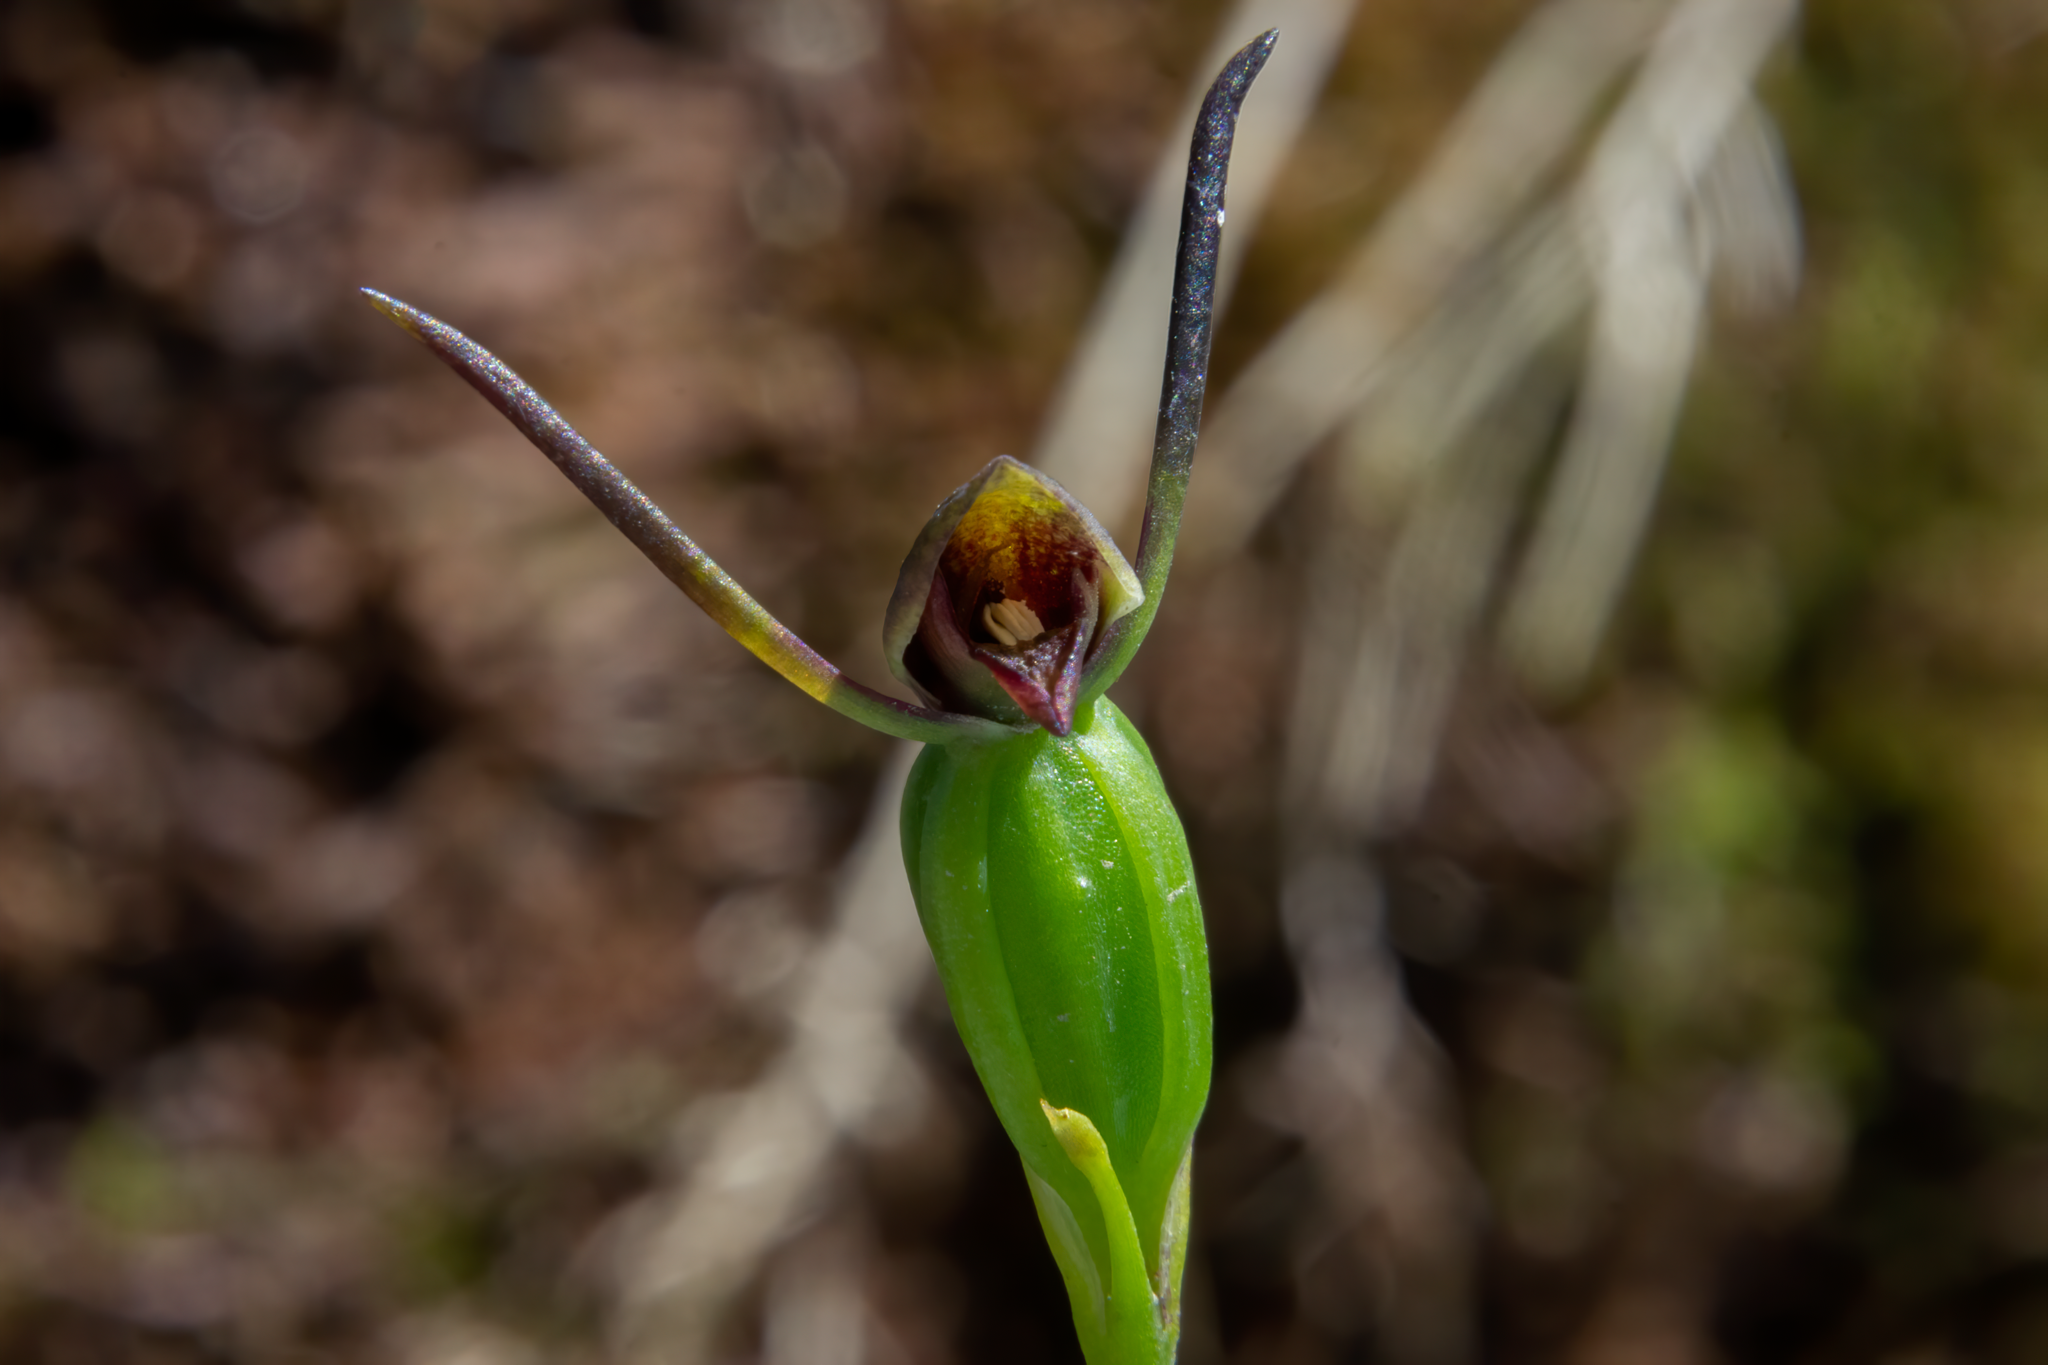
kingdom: Plantae
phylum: Tracheophyta
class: Liliopsida
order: Asparagales
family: Orchidaceae
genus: Orthoceras
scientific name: Orthoceras novae-zeelandiae
